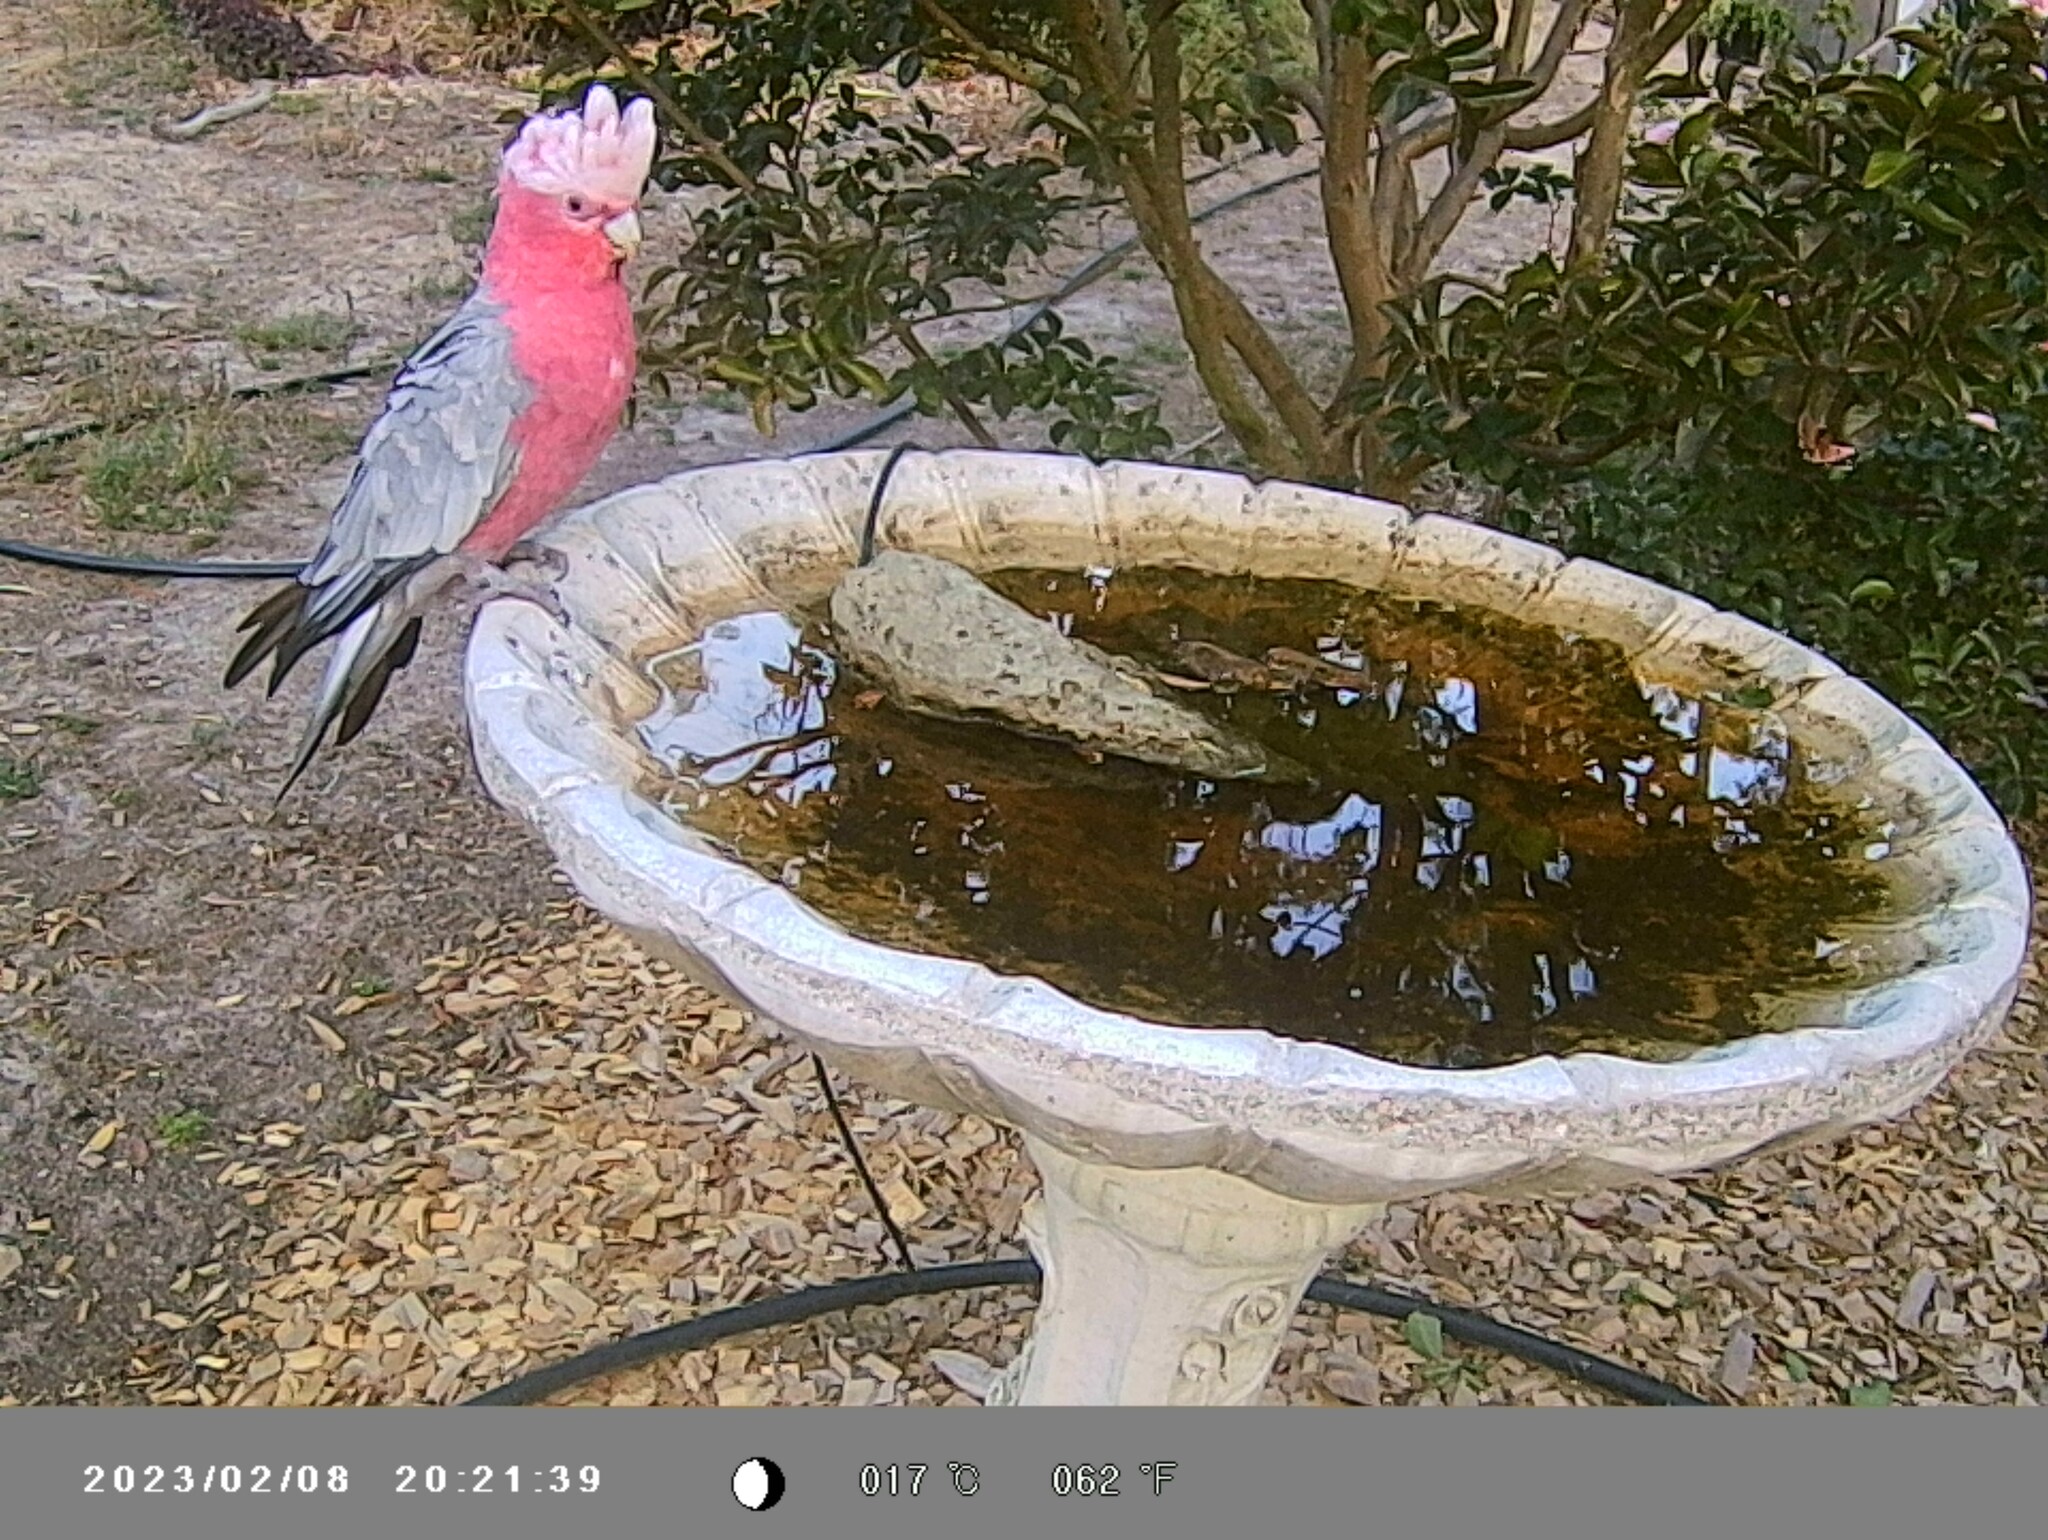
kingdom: Animalia
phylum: Chordata
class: Aves
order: Psittaciformes
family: Psittacidae
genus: Eolophus
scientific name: Eolophus roseicapilla
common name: Galah
